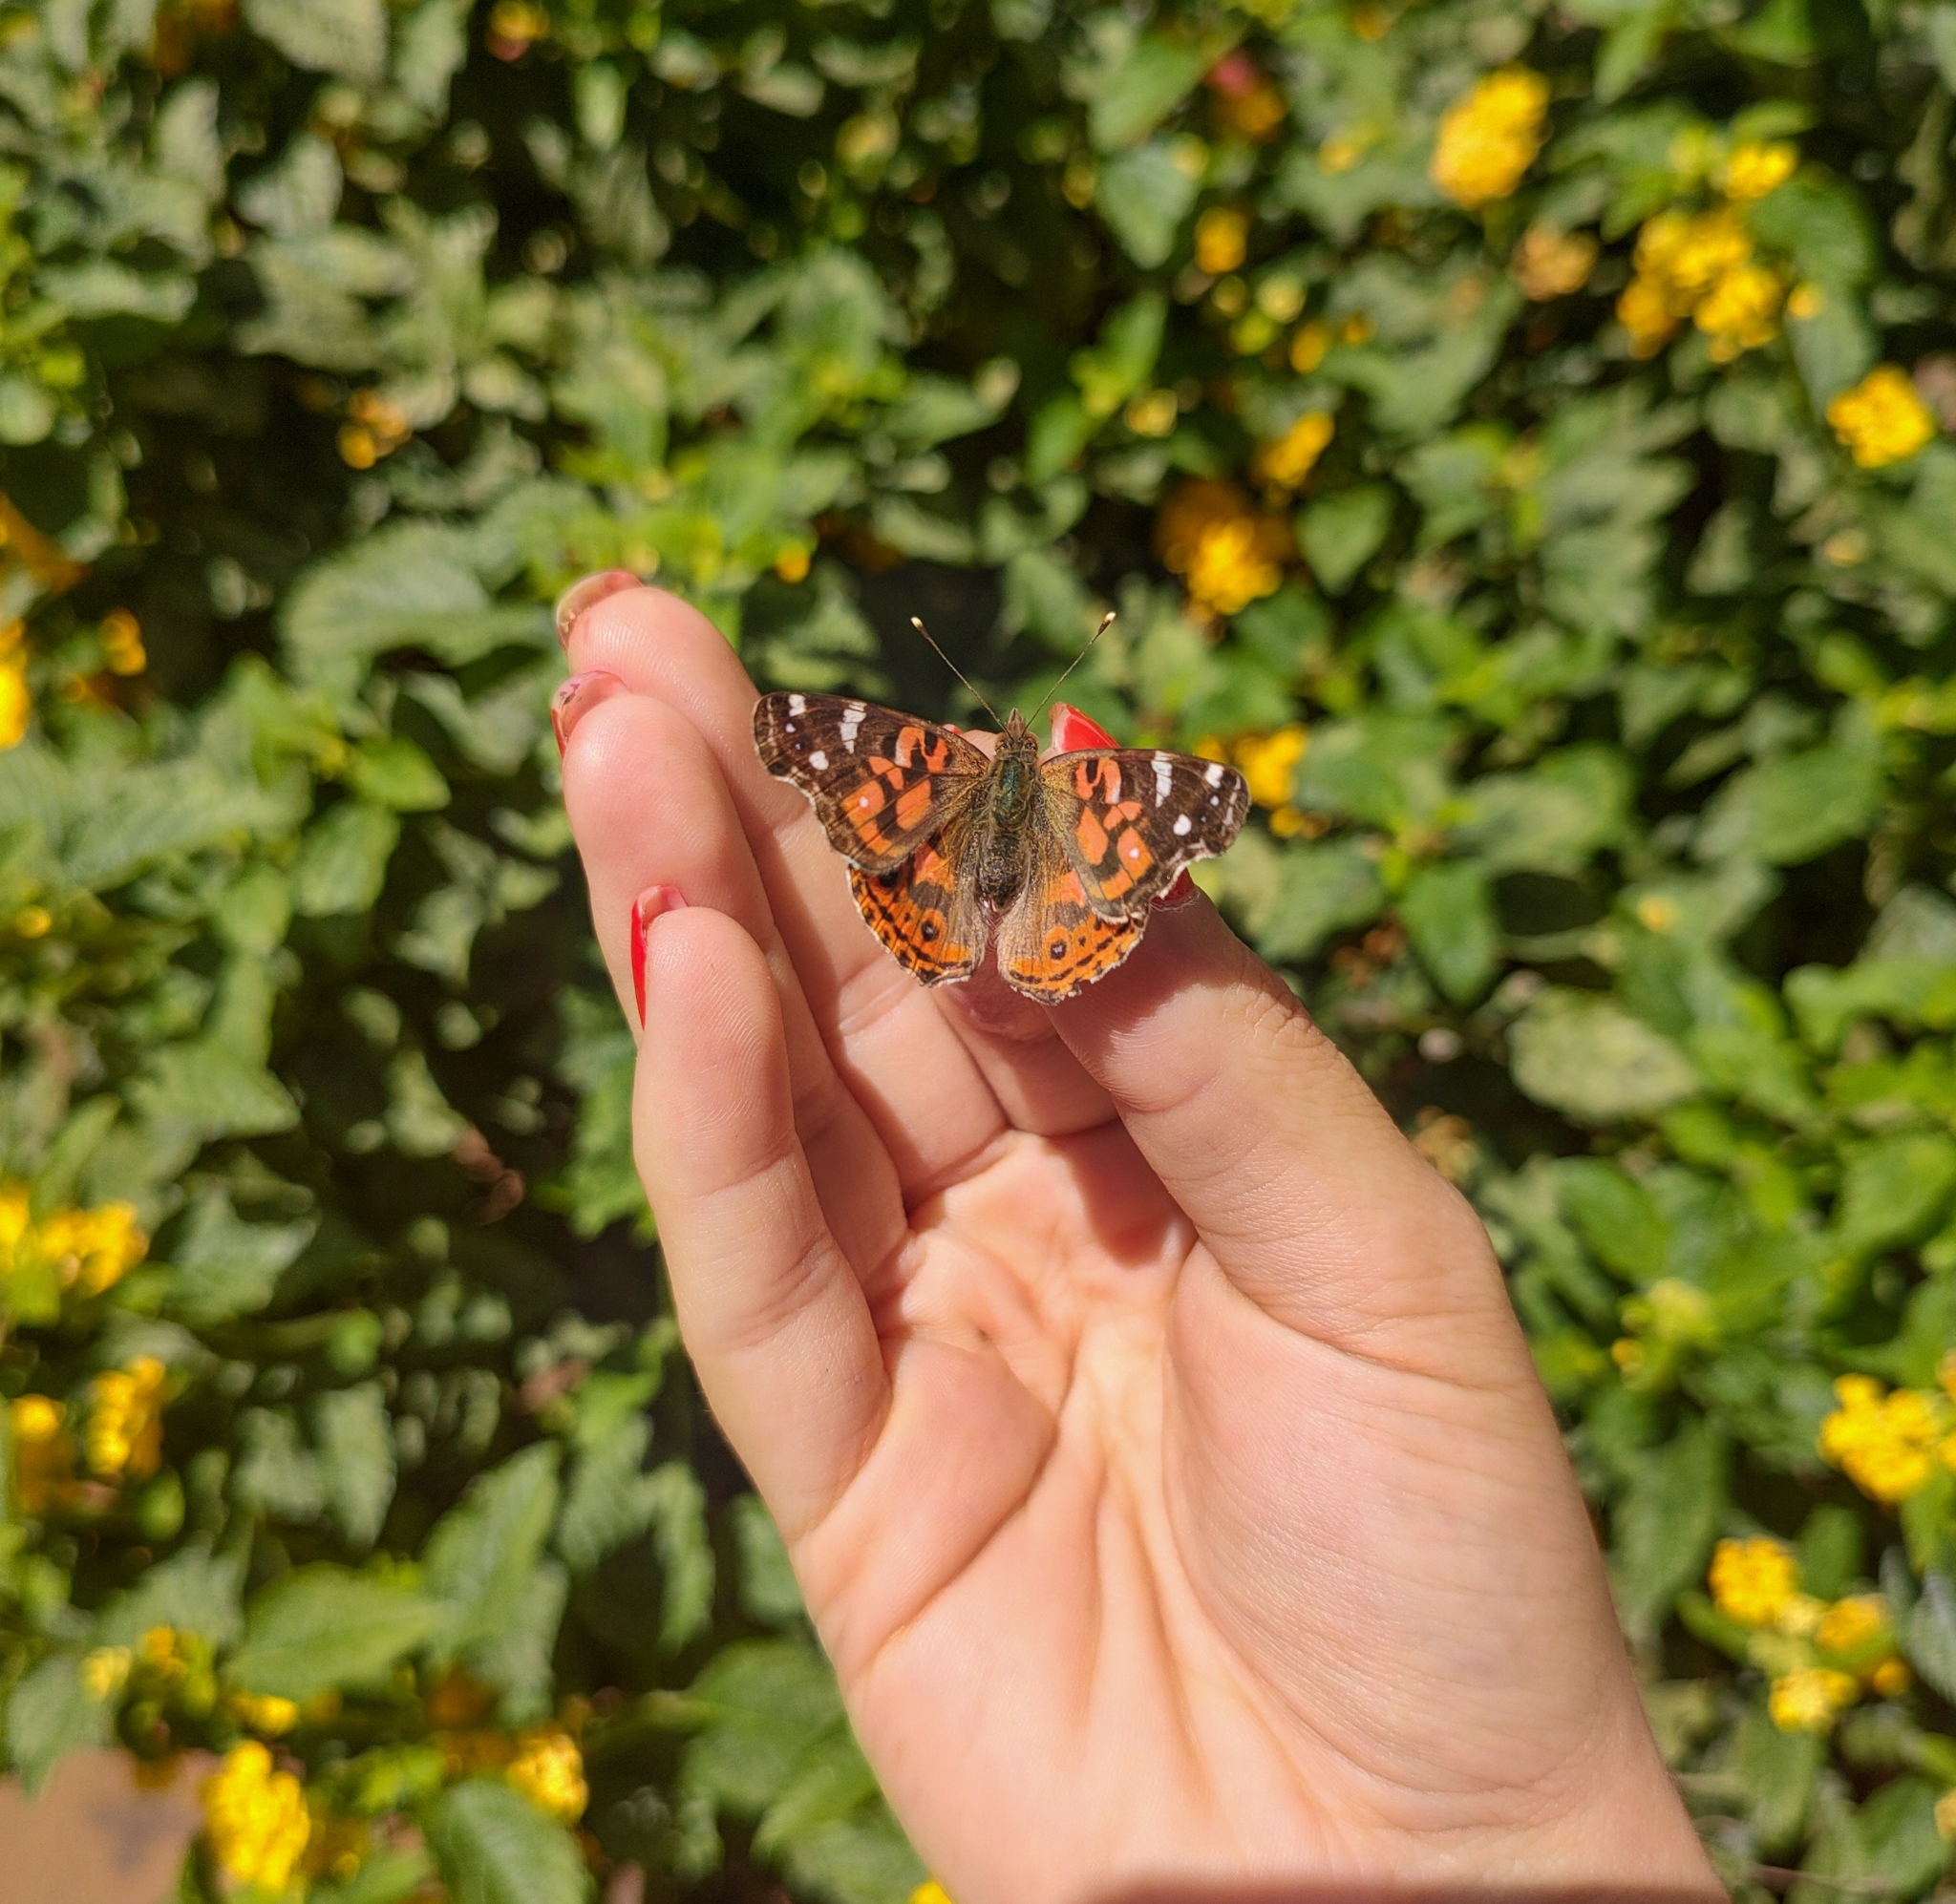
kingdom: Animalia
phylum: Arthropoda
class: Insecta
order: Lepidoptera
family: Nymphalidae
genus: Vanessa
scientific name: Vanessa braziliensis
